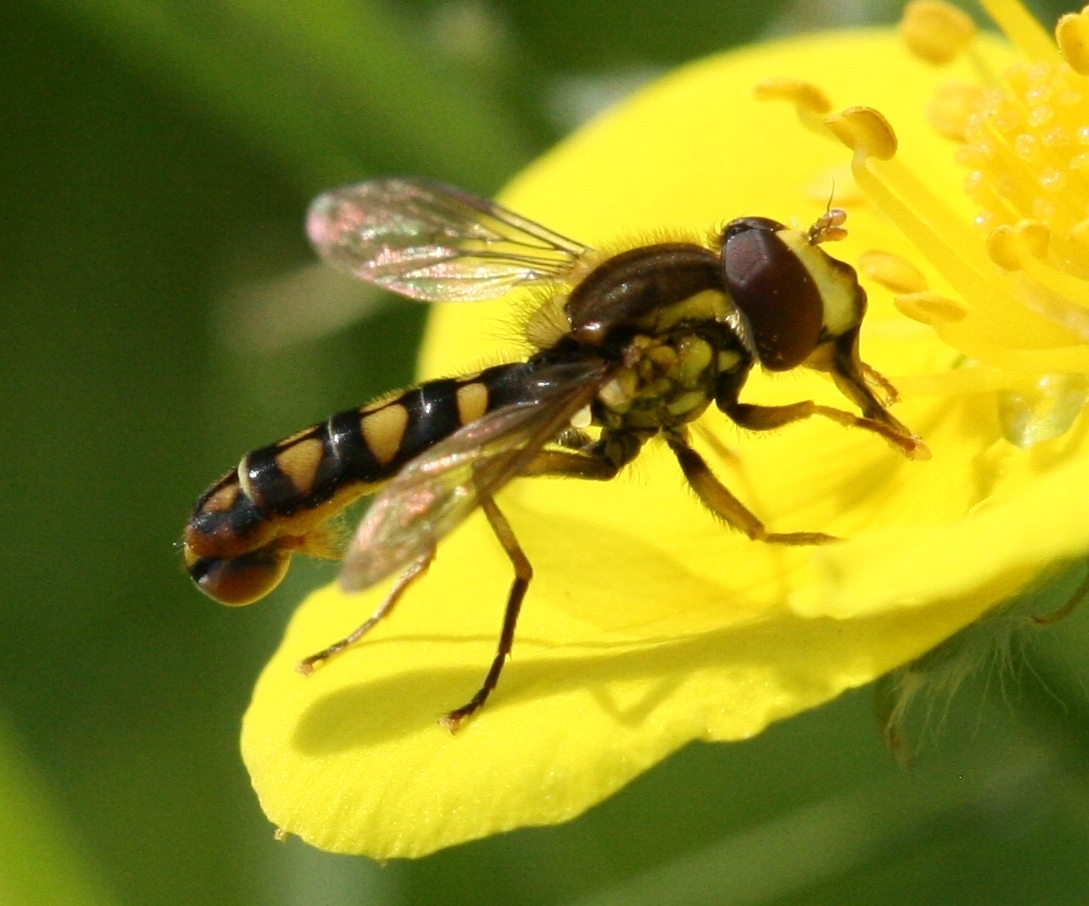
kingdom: Animalia
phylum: Arthropoda
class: Insecta
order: Diptera
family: Syrphidae
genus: Sphaerophoria
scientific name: Sphaerophoria
